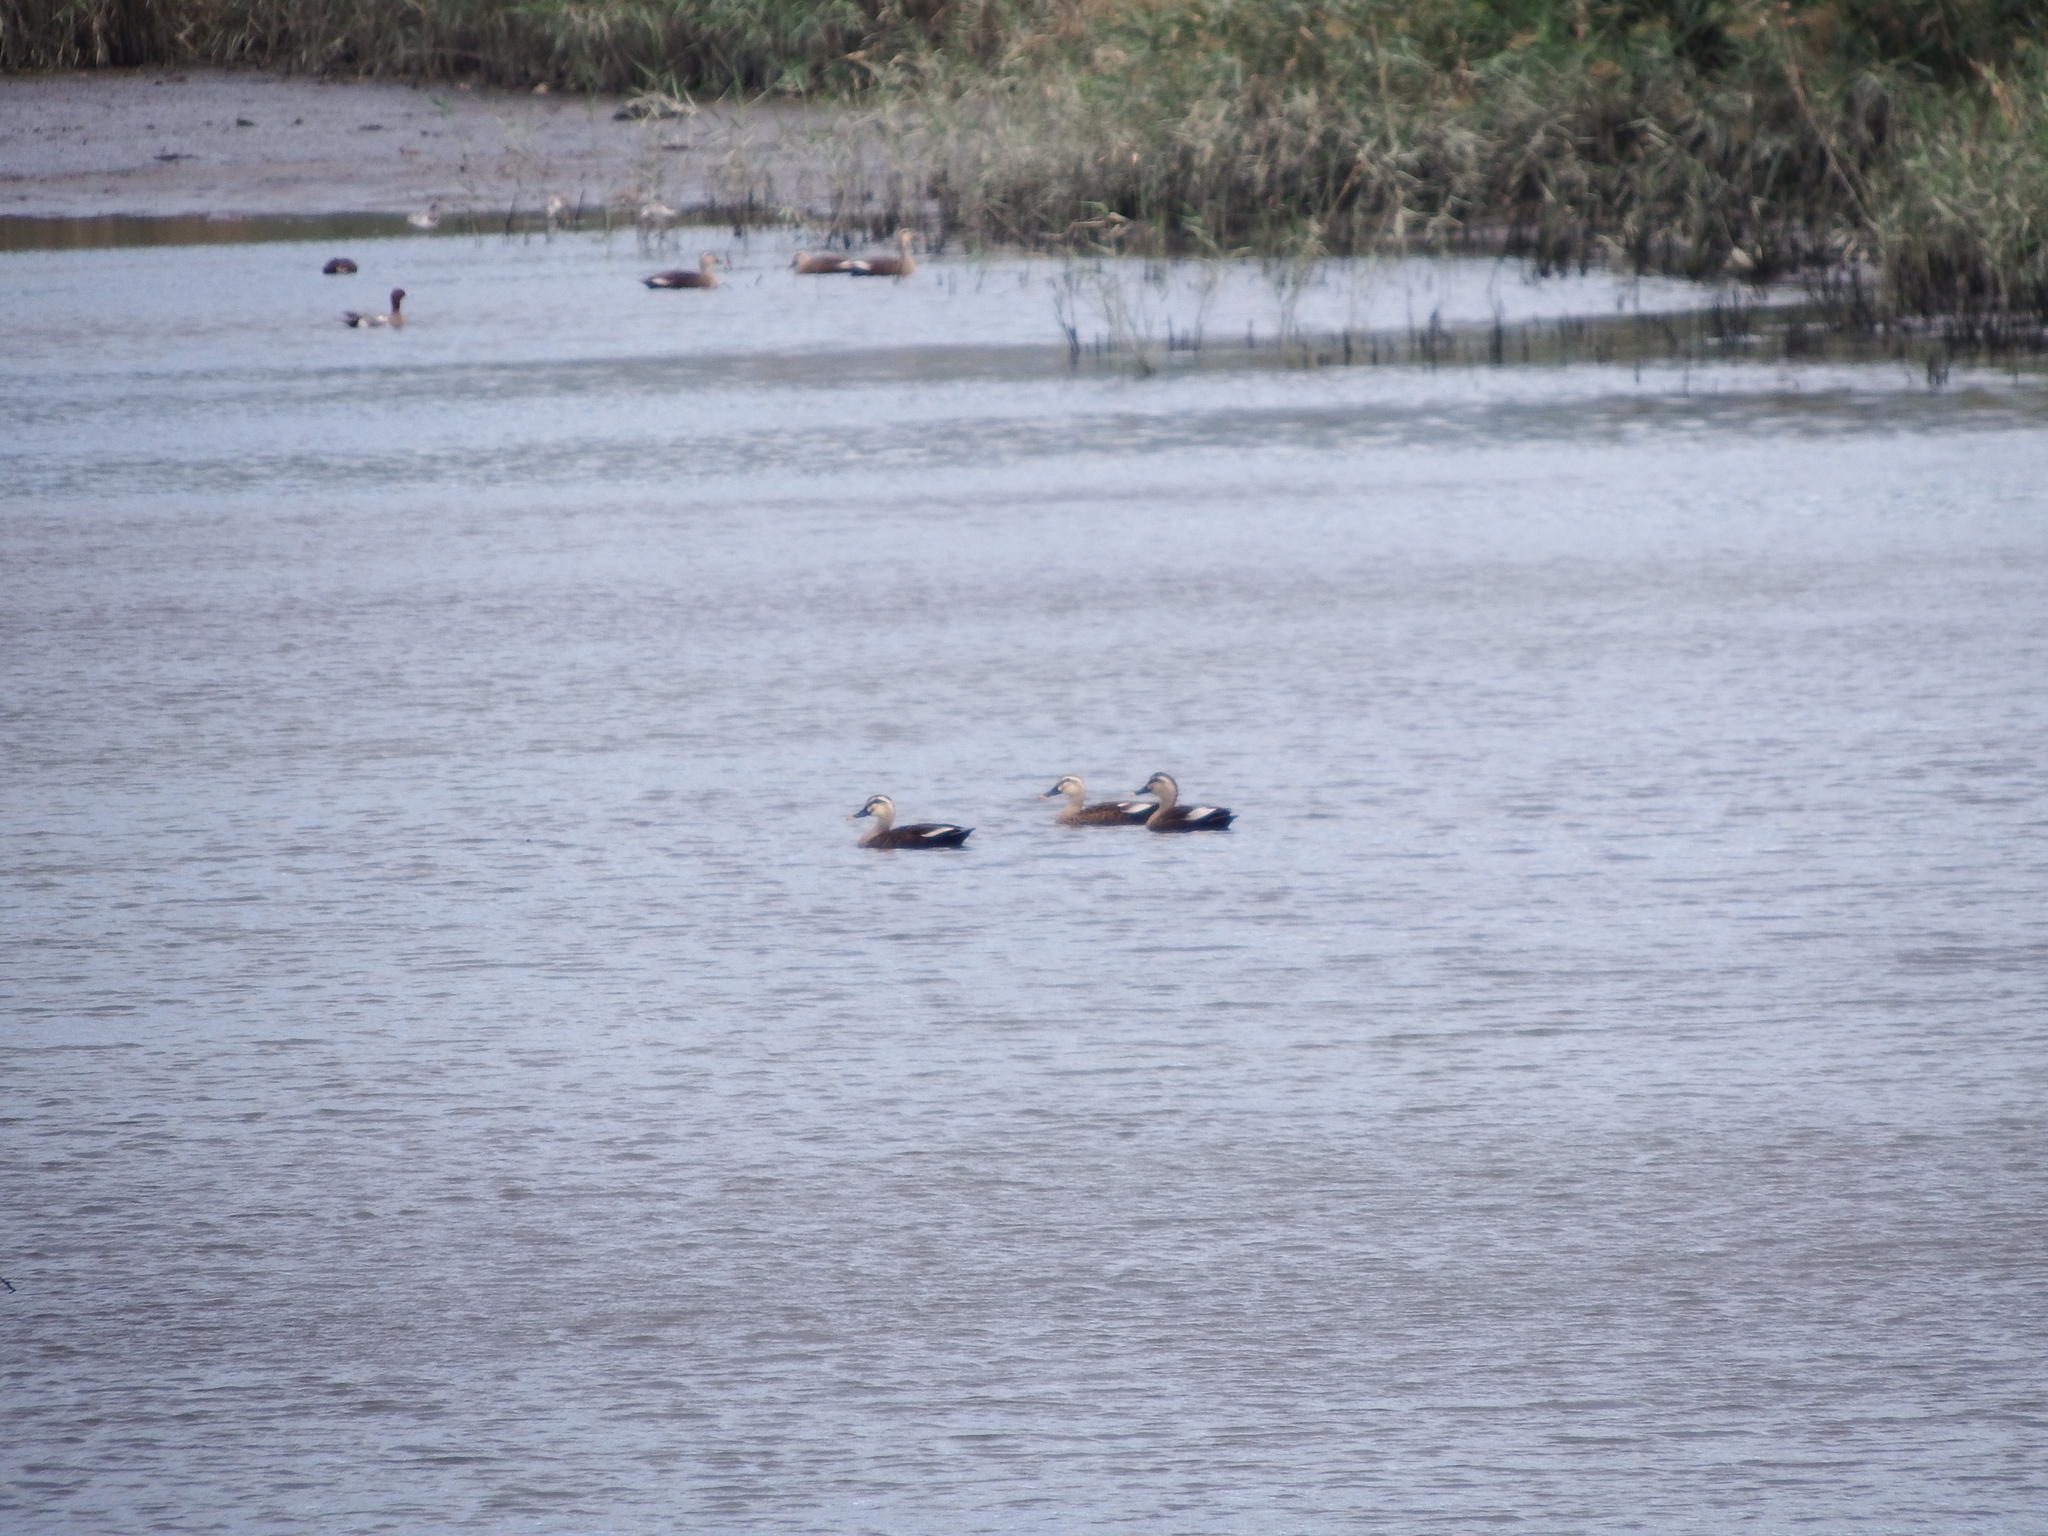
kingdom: Animalia
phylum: Chordata
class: Aves
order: Anseriformes
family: Anatidae
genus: Anas
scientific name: Anas zonorhyncha
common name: Eastern spot-billed duck
